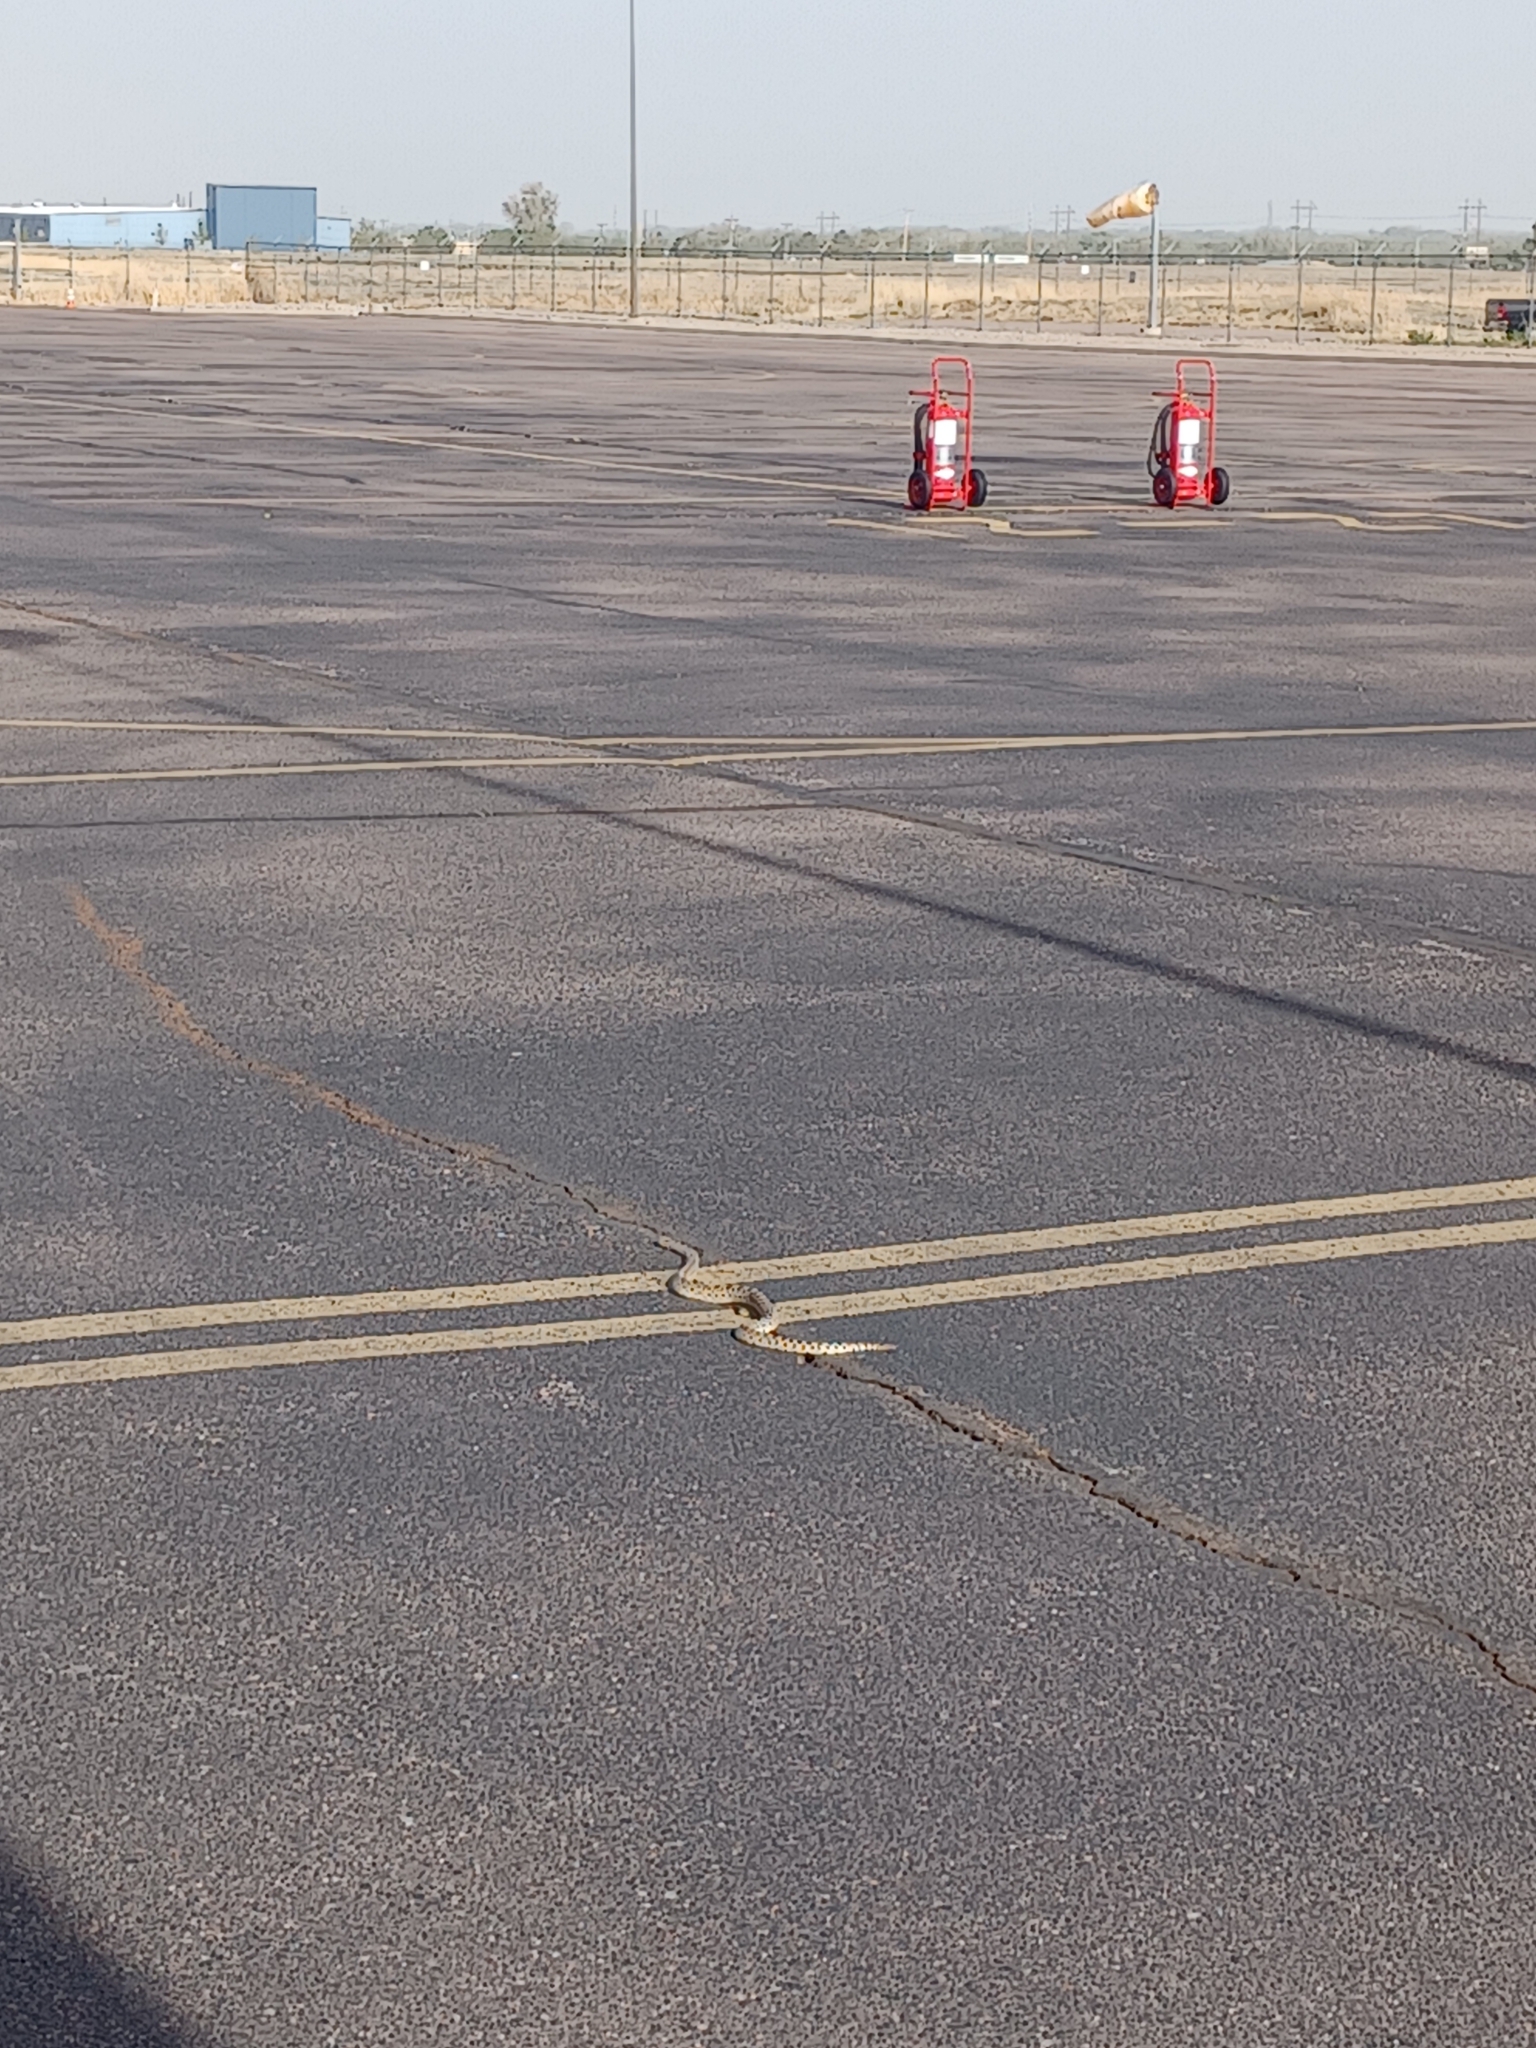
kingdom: Animalia
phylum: Chordata
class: Squamata
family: Colubridae
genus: Pituophis
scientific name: Pituophis catenifer
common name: Gopher snake
